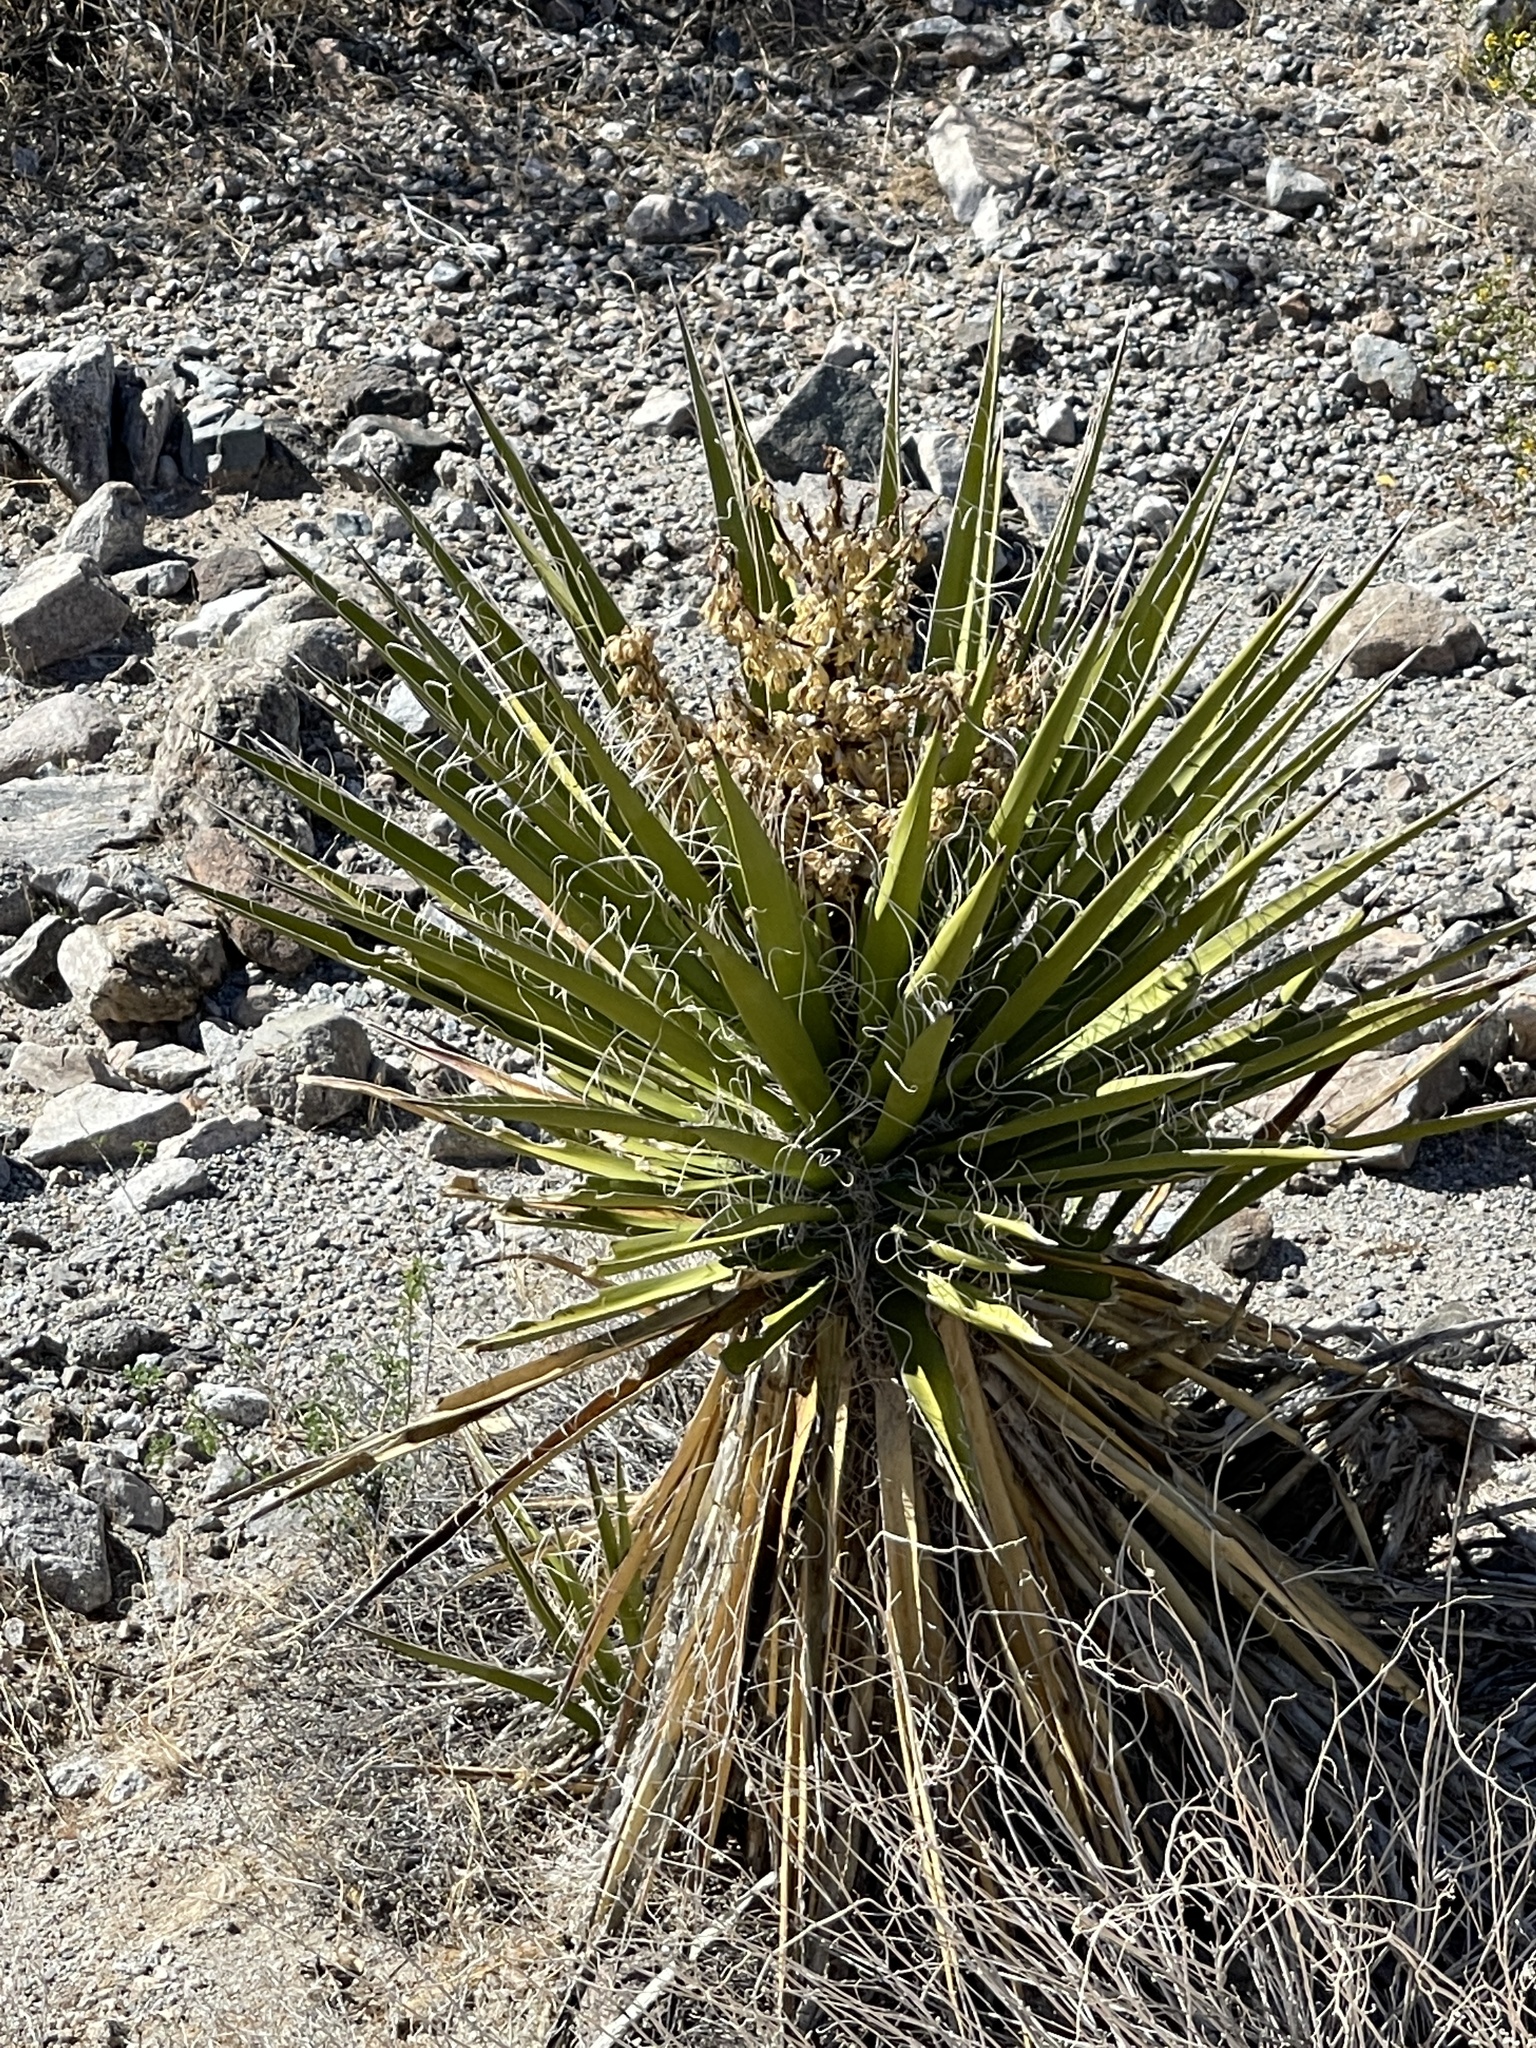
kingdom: Plantae
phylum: Tracheophyta
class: Liliopsida
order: Asparagales
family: Asparagaceae
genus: Yucca
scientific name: Yucca schidigera
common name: Mojave yucca
